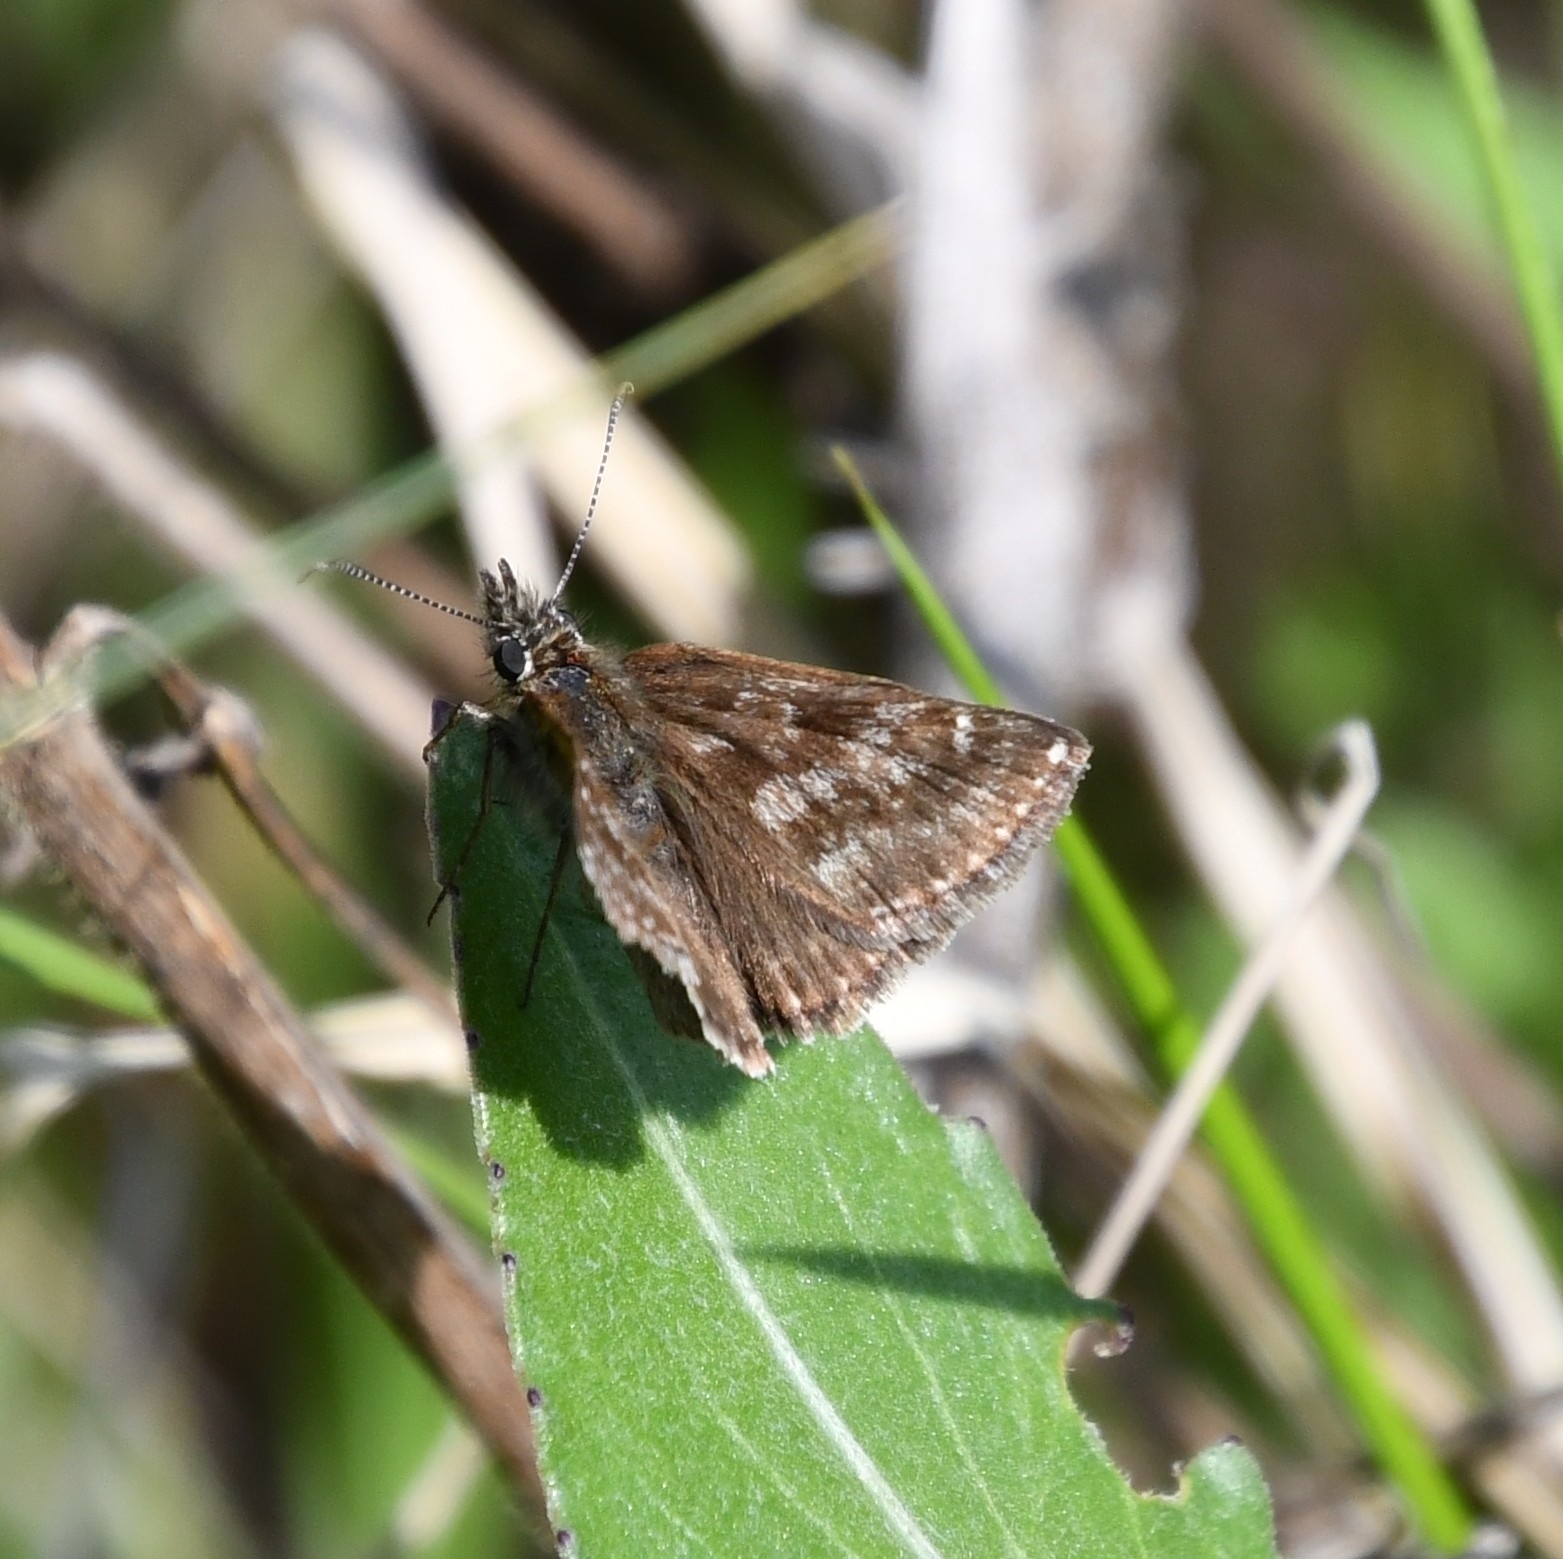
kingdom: Animalia
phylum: Arthropoda
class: Insecta
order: Lepidoptera
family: Hesperiidae
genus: Erynnis
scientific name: Erynnis tages
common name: Dingy skipper
